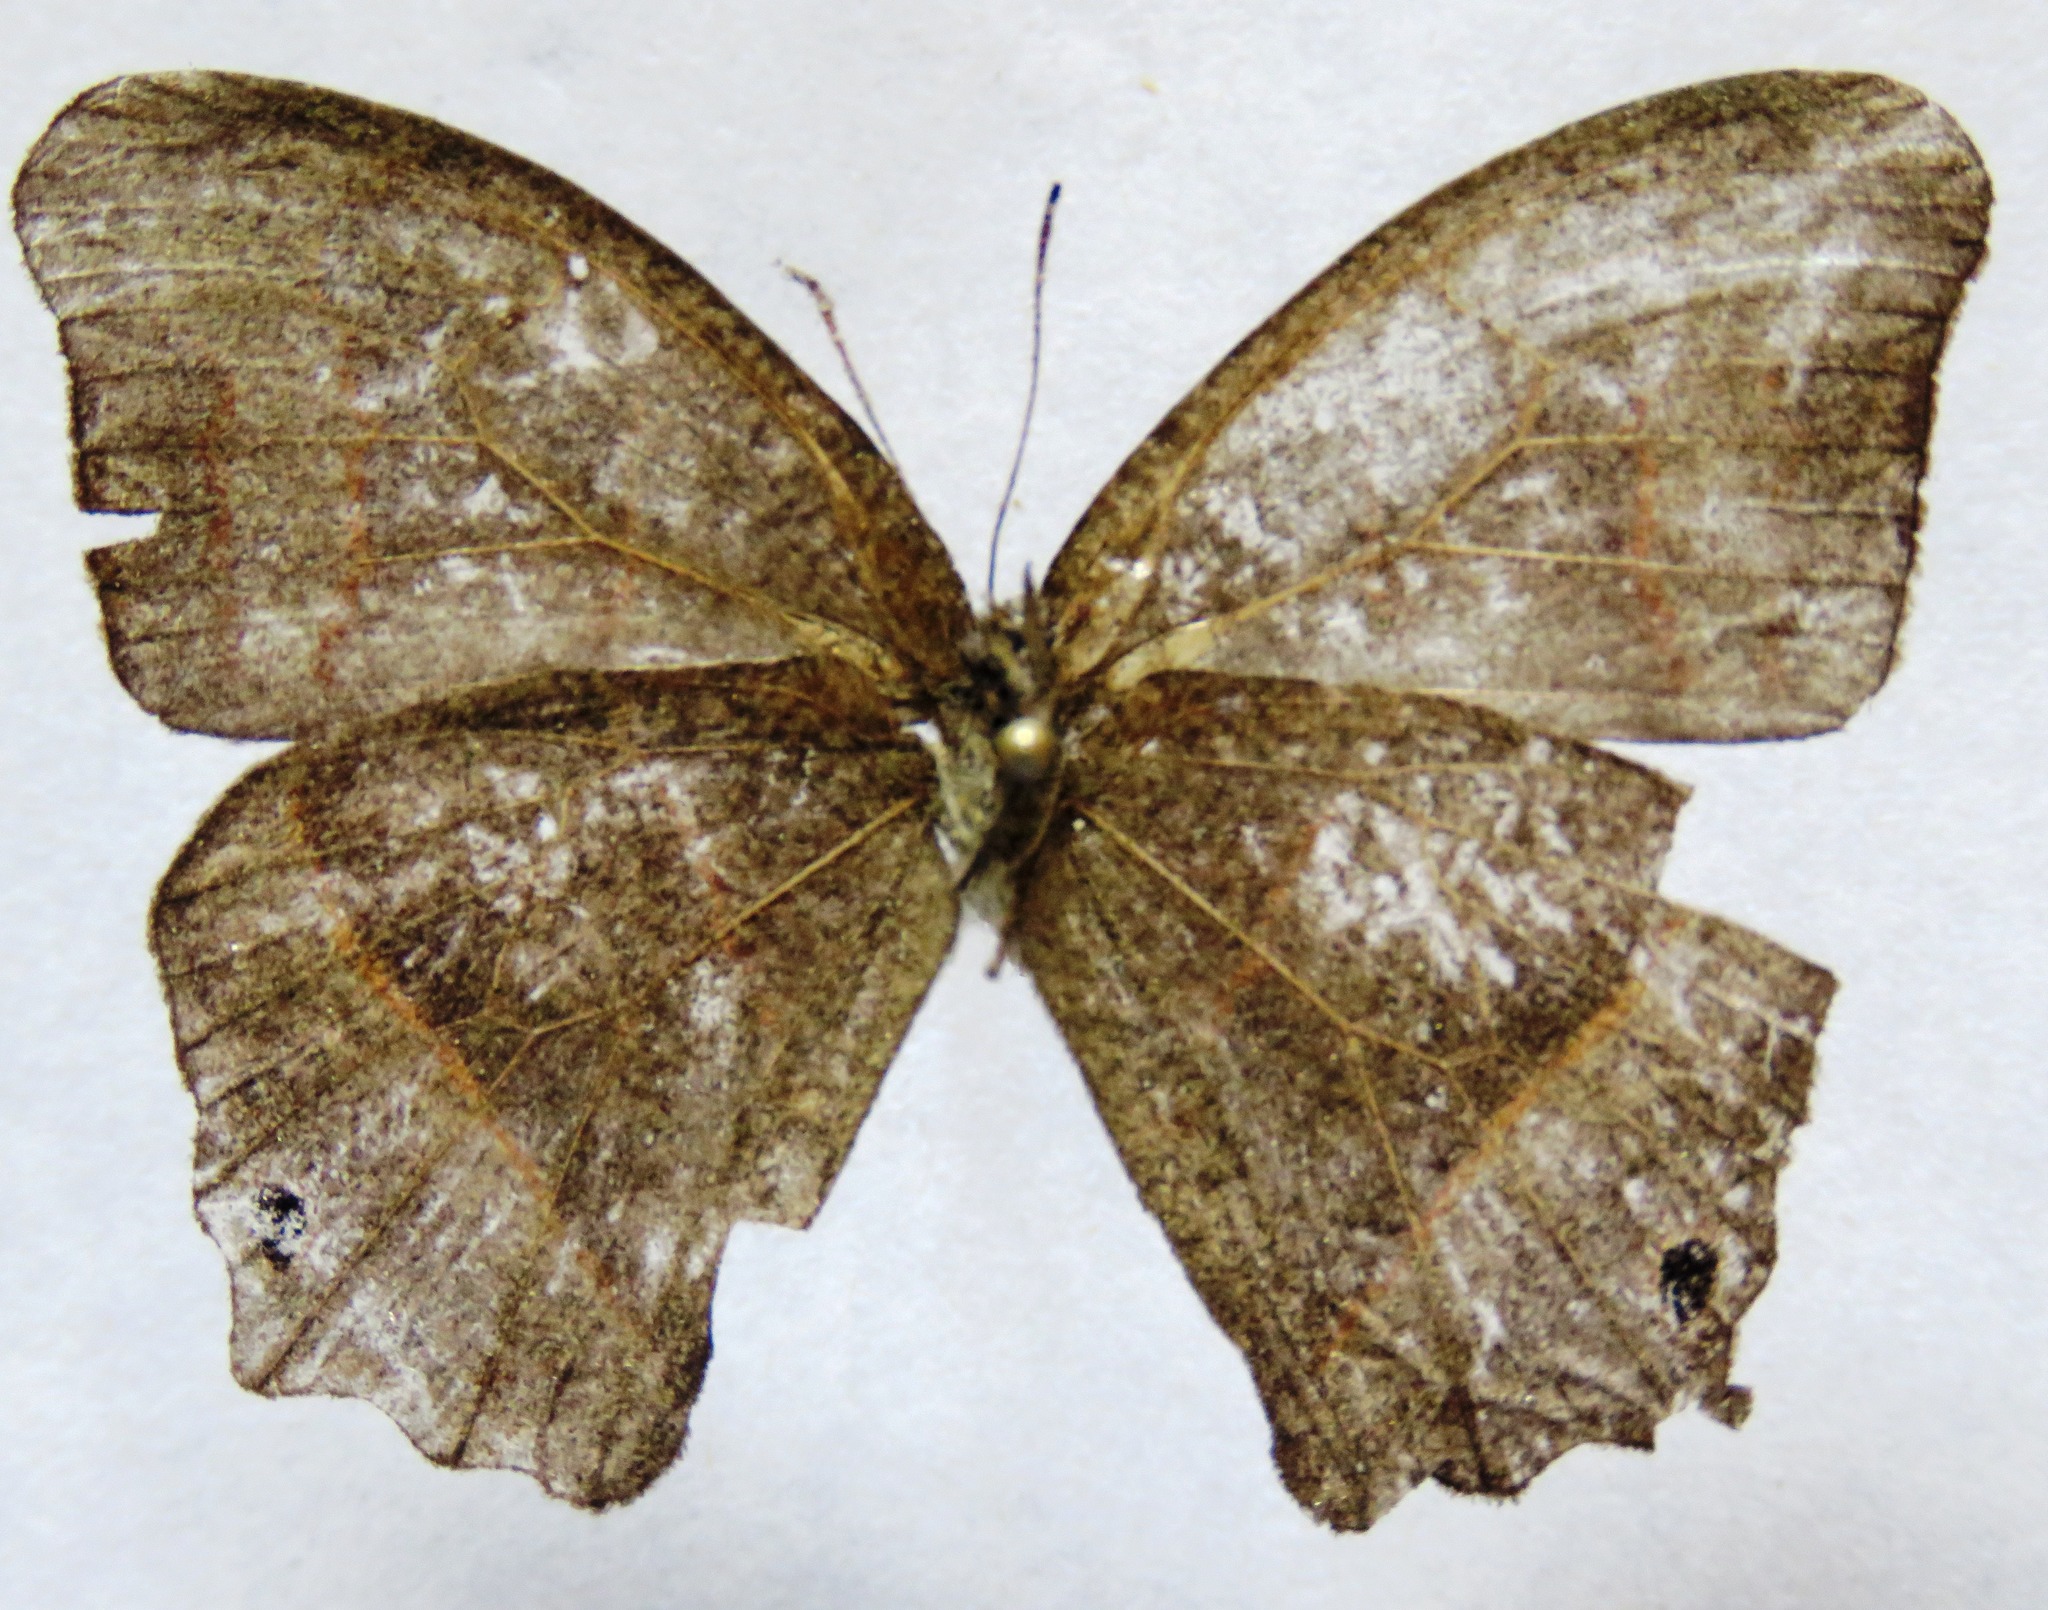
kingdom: Animalia
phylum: Arthropoda
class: Insecta
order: Lepidoptera
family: Nymphalidae
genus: Euptychia
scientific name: Euptychia Cyllopsis hedemanni
